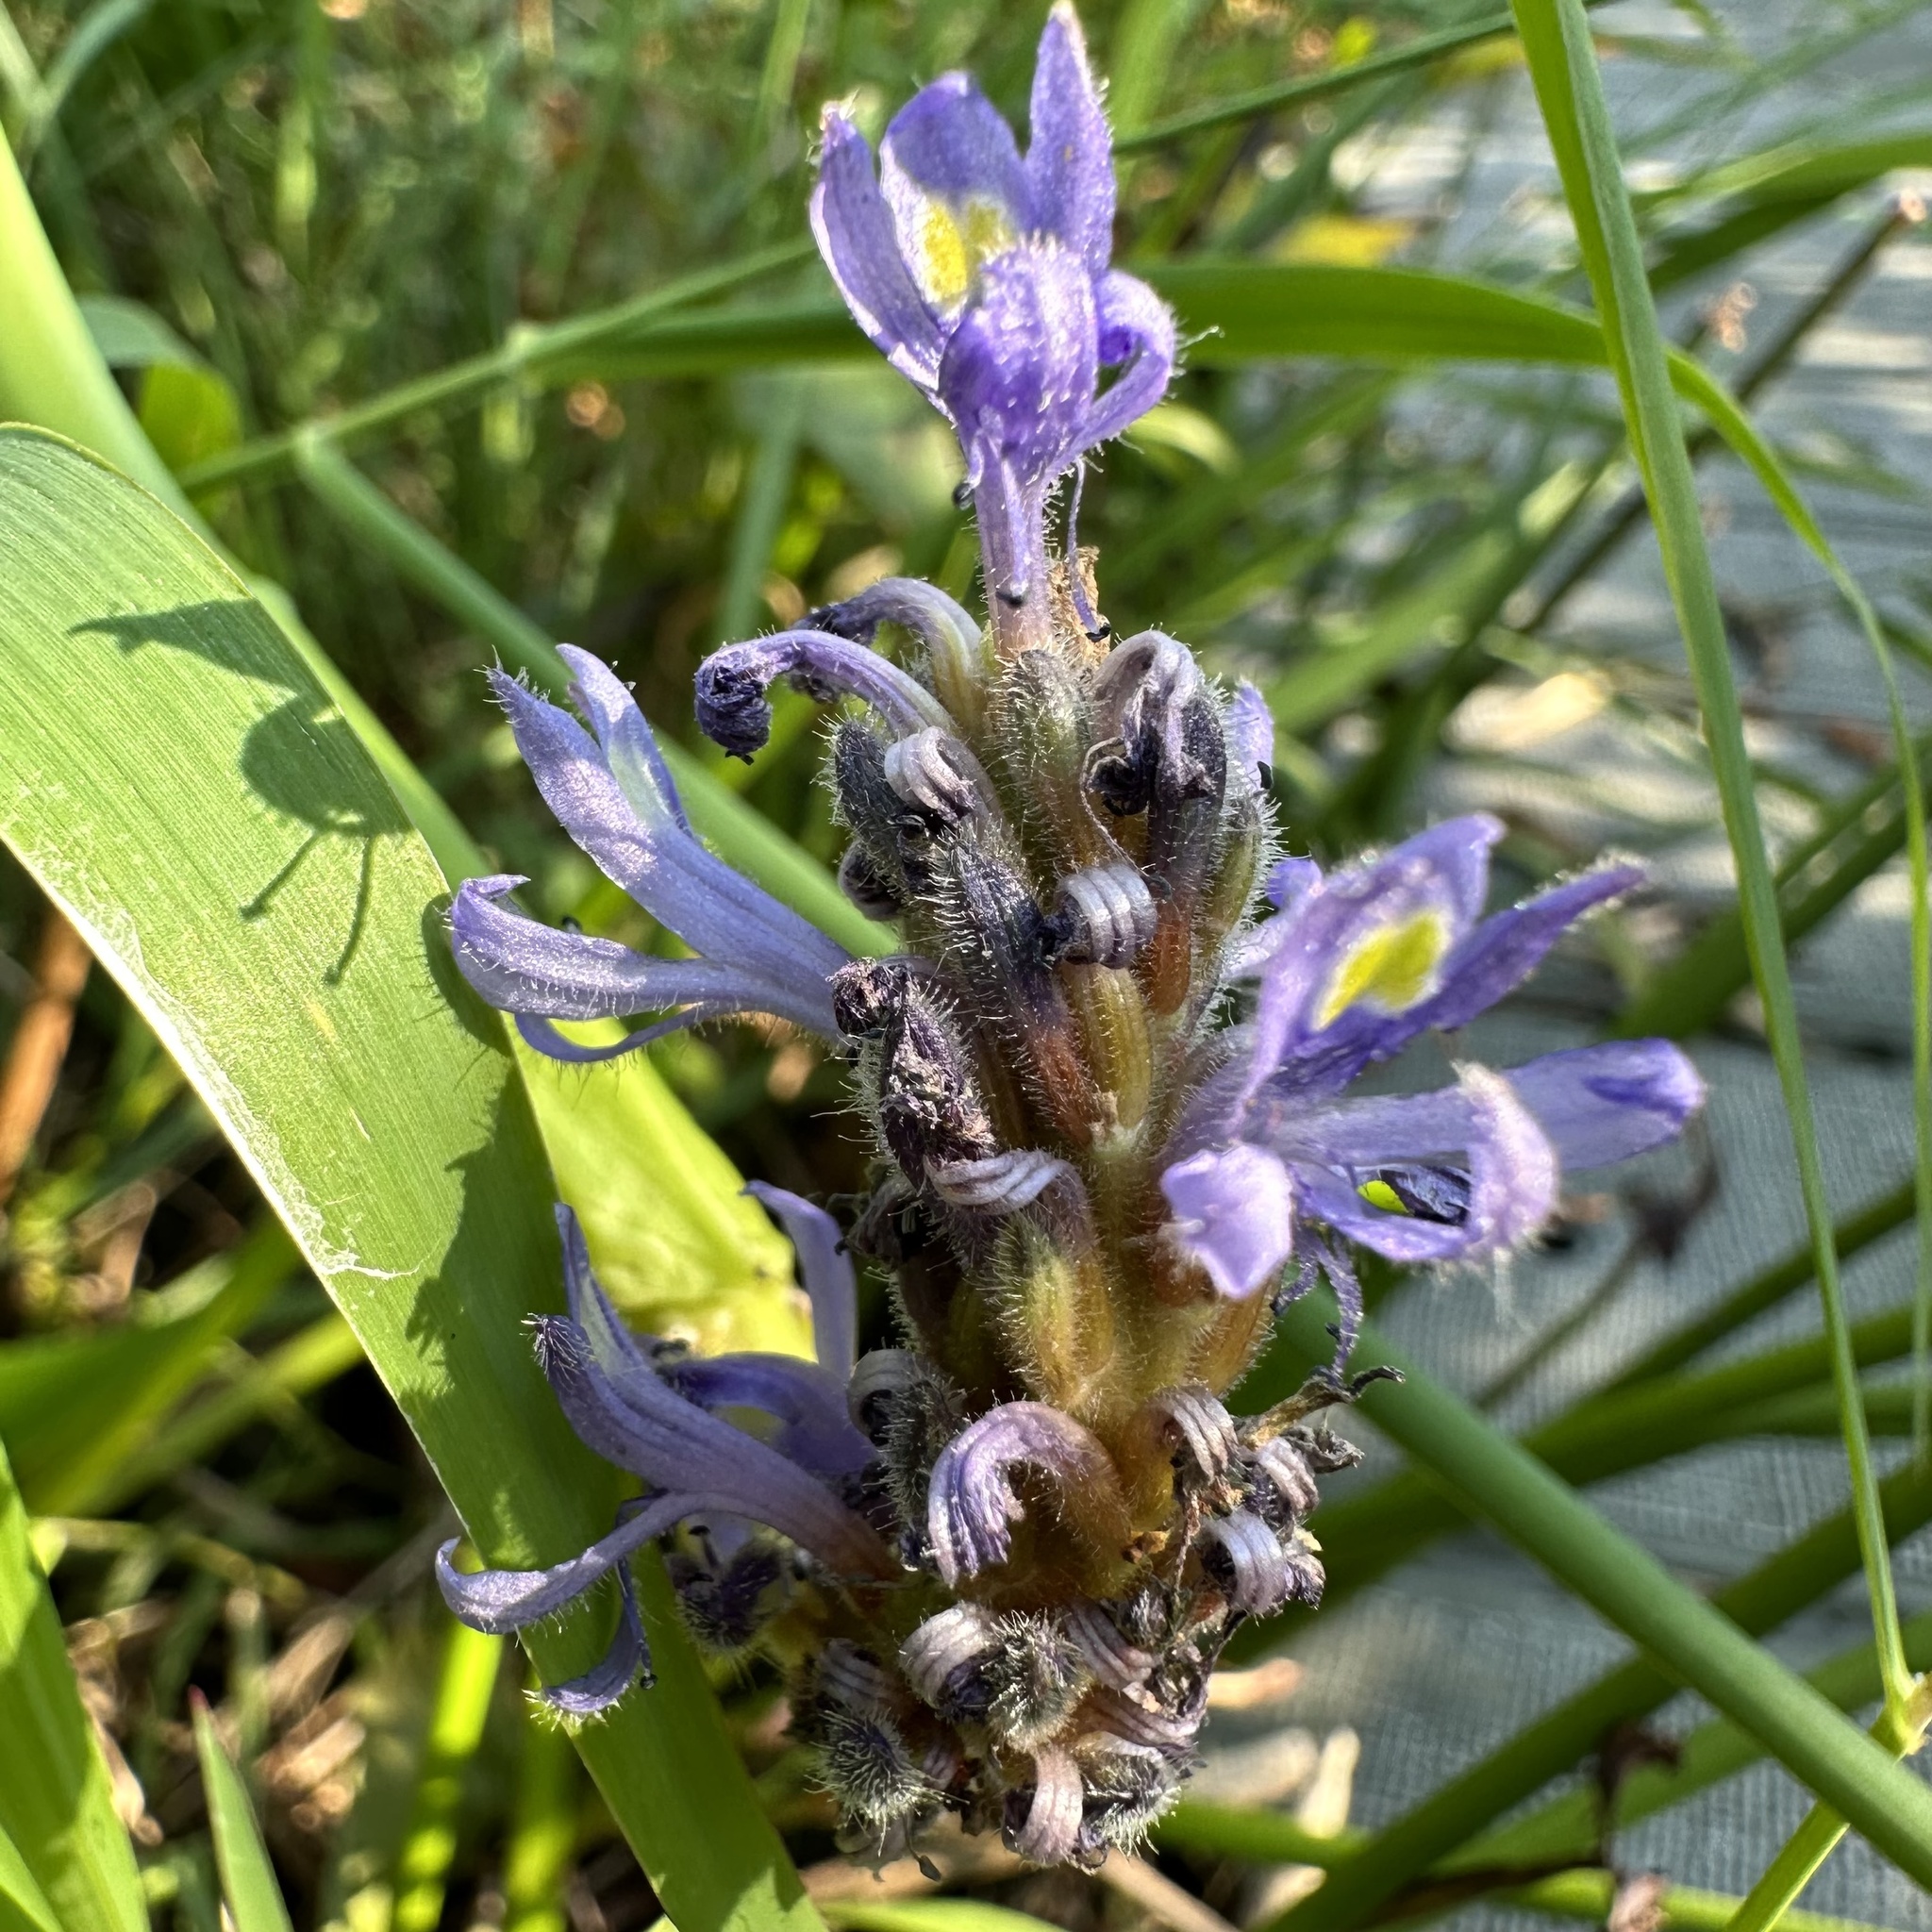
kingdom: Plantae
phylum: Tracheophyta
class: Liliopsida
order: Commelinales
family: Pontederiaceae
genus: Pontederia
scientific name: Pontederia cordata
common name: Pickerelweed
